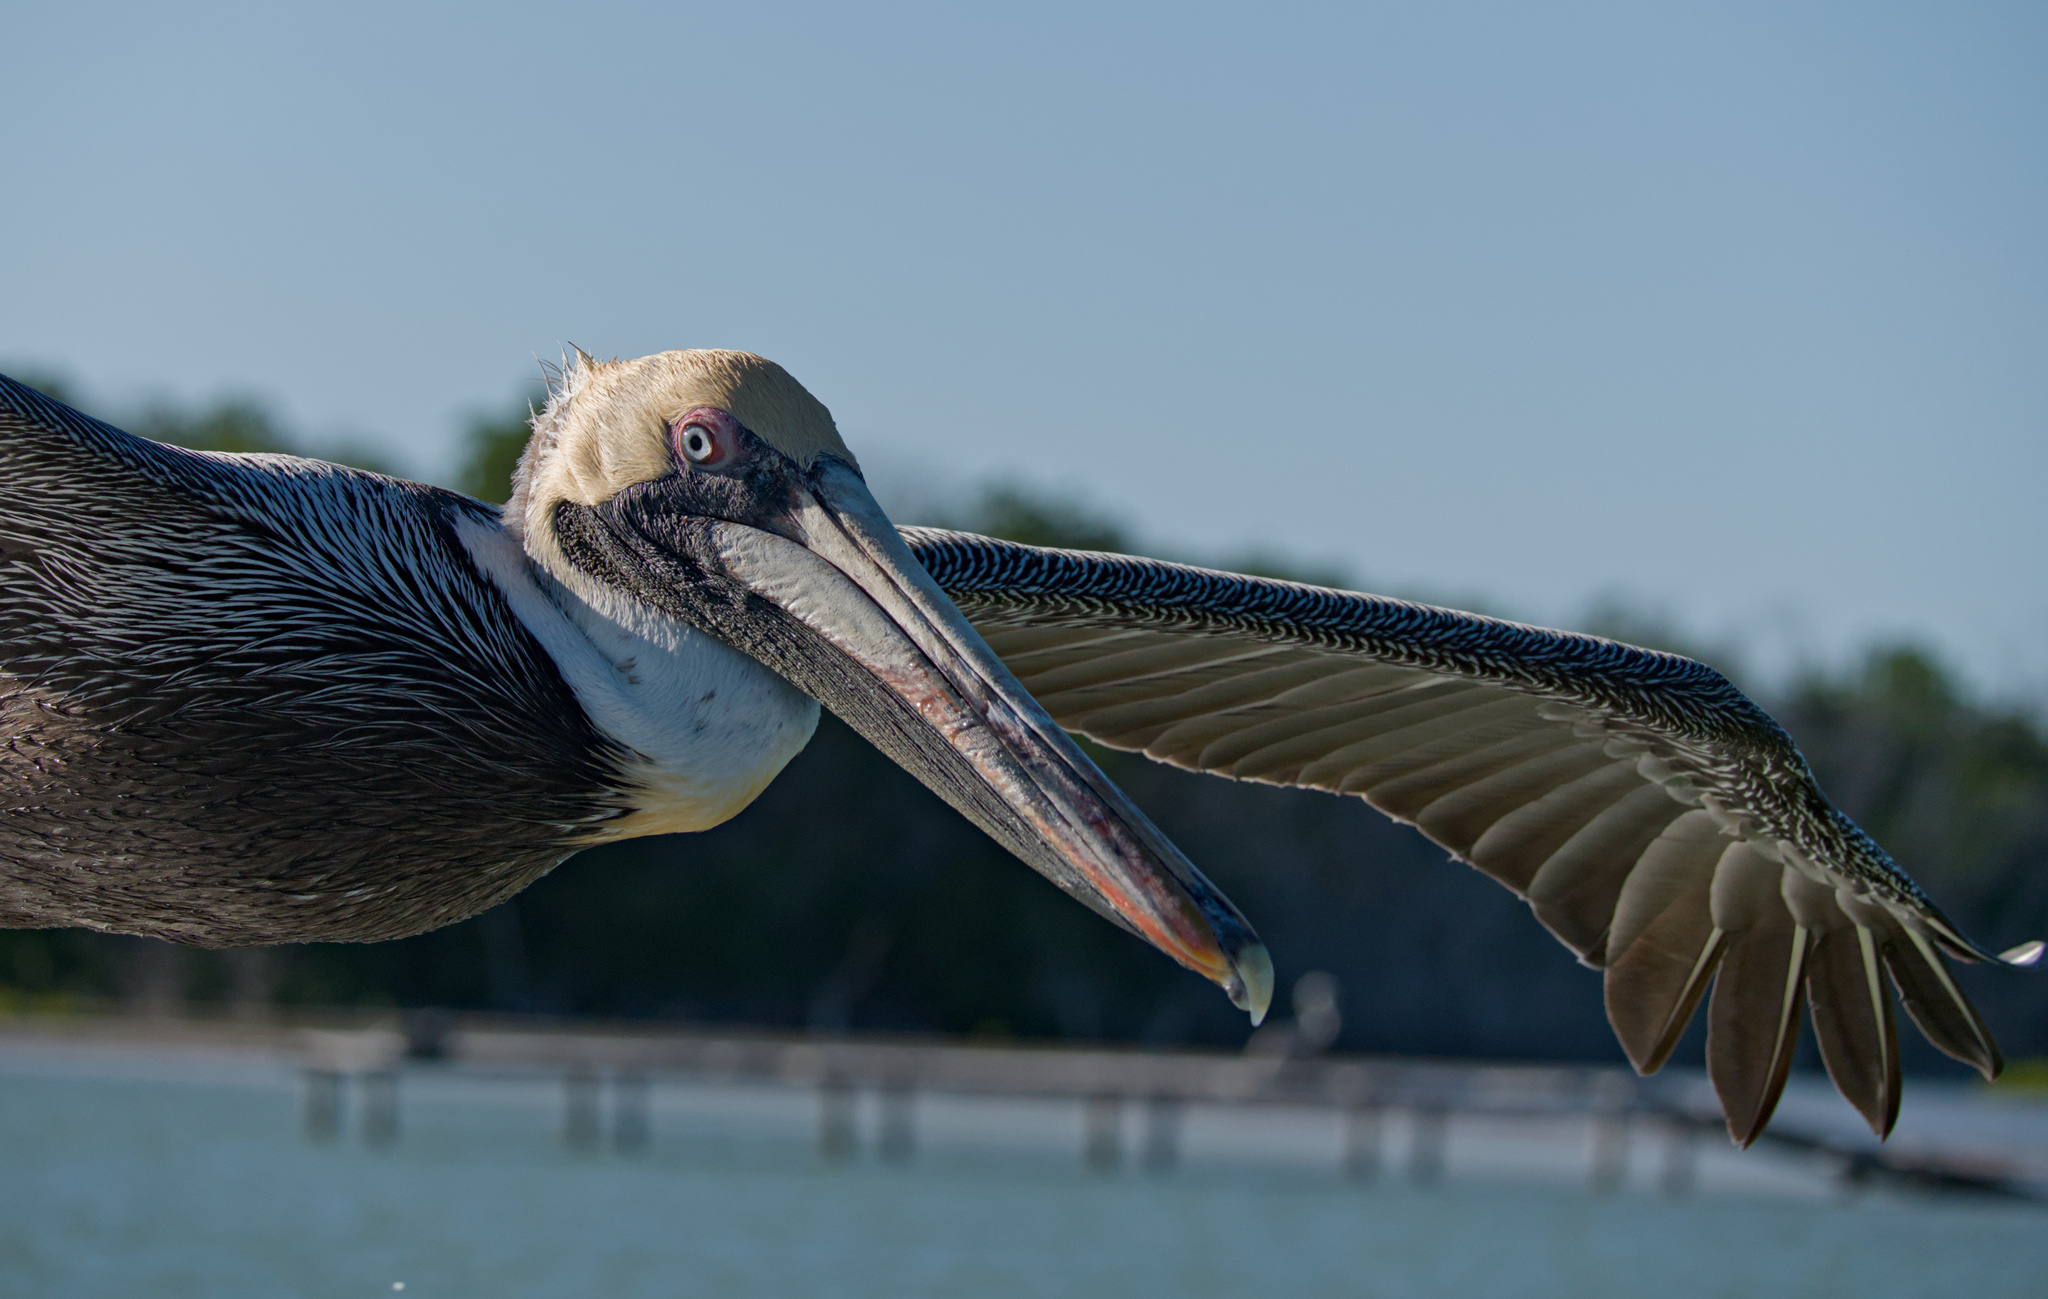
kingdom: Animalia
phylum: Chordata
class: Aves
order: Pelecaniformes
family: Pelecanidae
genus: Pelecanus
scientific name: Pelecanus occidentalis
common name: Brown pelican
